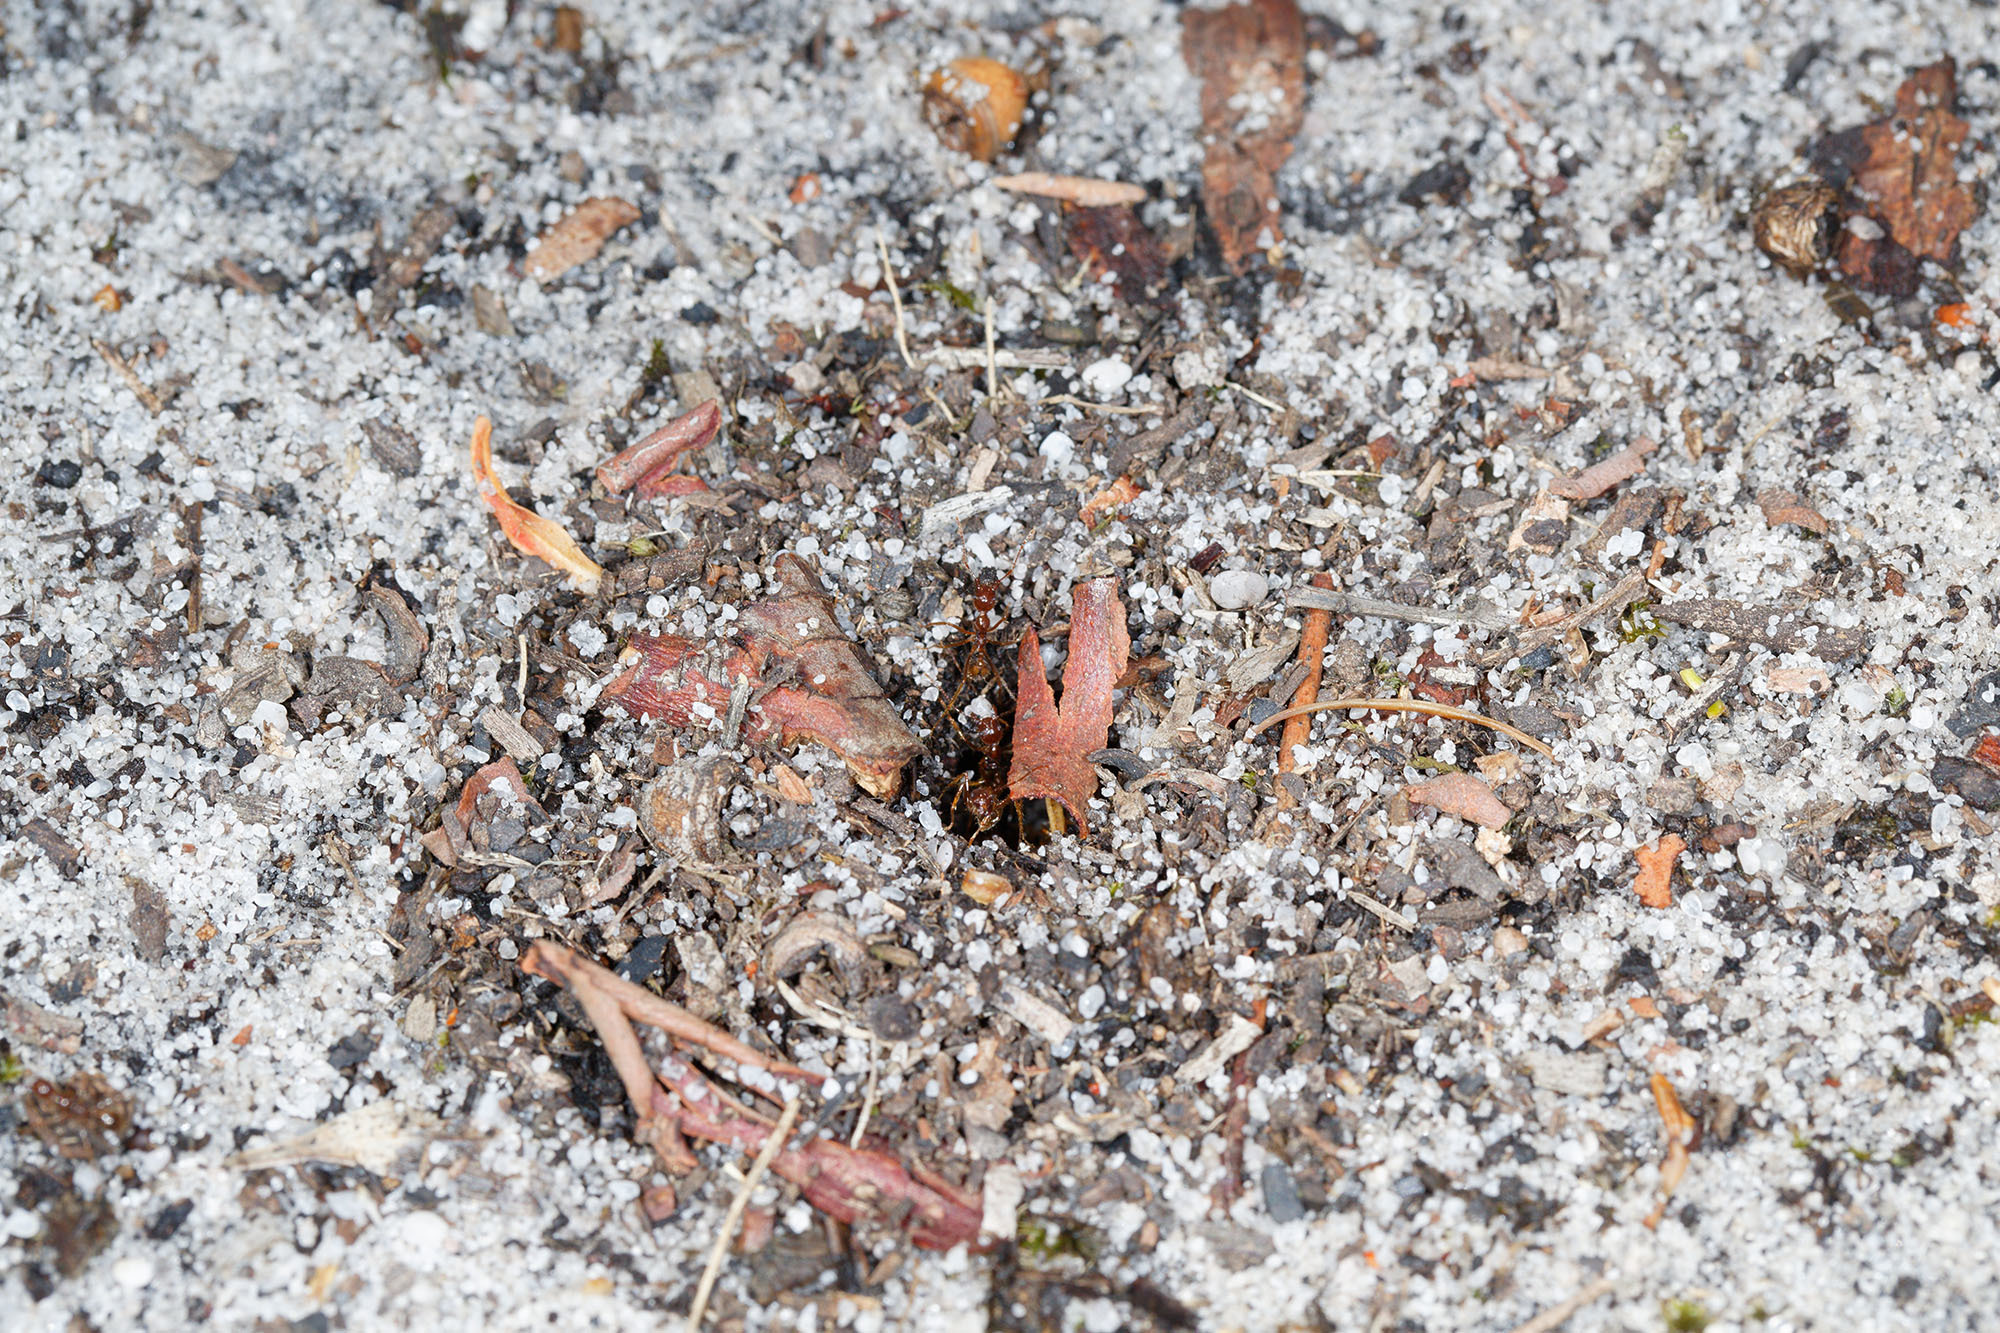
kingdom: Animalia
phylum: Arthropoda
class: Insecta
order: Hymenoptera
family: Formicidae
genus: Aphaenogaster
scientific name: Aphaenogaster longiceps
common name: Funnel ant
